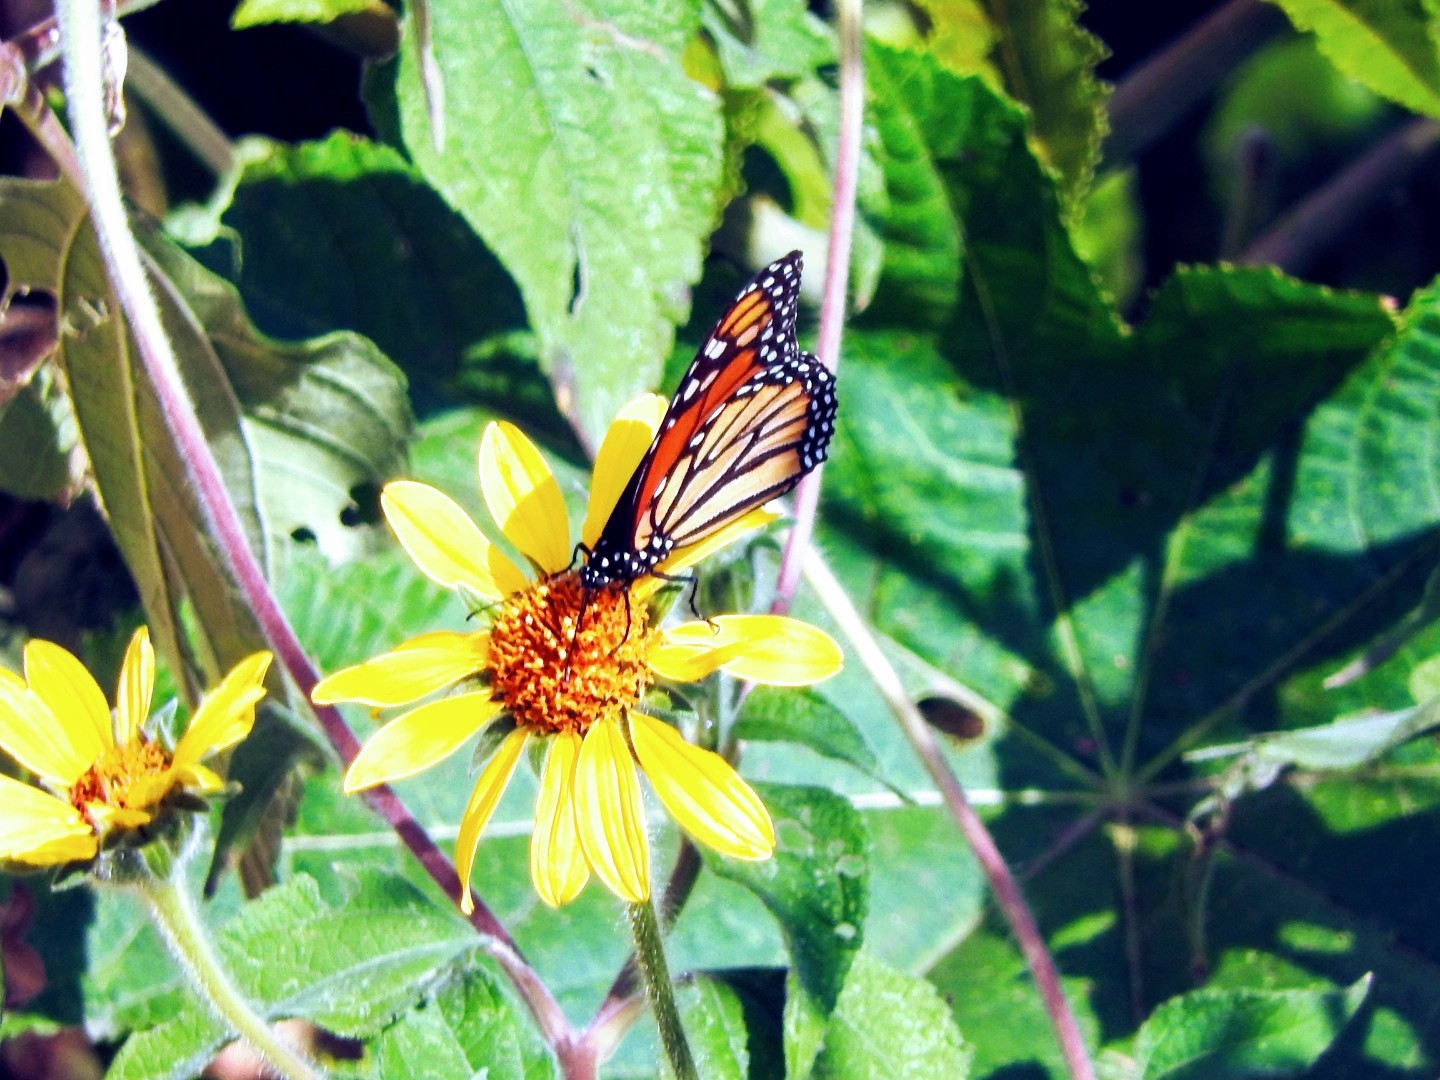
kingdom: Animalia
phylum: Arthropoda
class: Insecta
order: Lepidoptera
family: Nymphalidae
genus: Danaus
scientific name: Danaus plexippus
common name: Monarch
